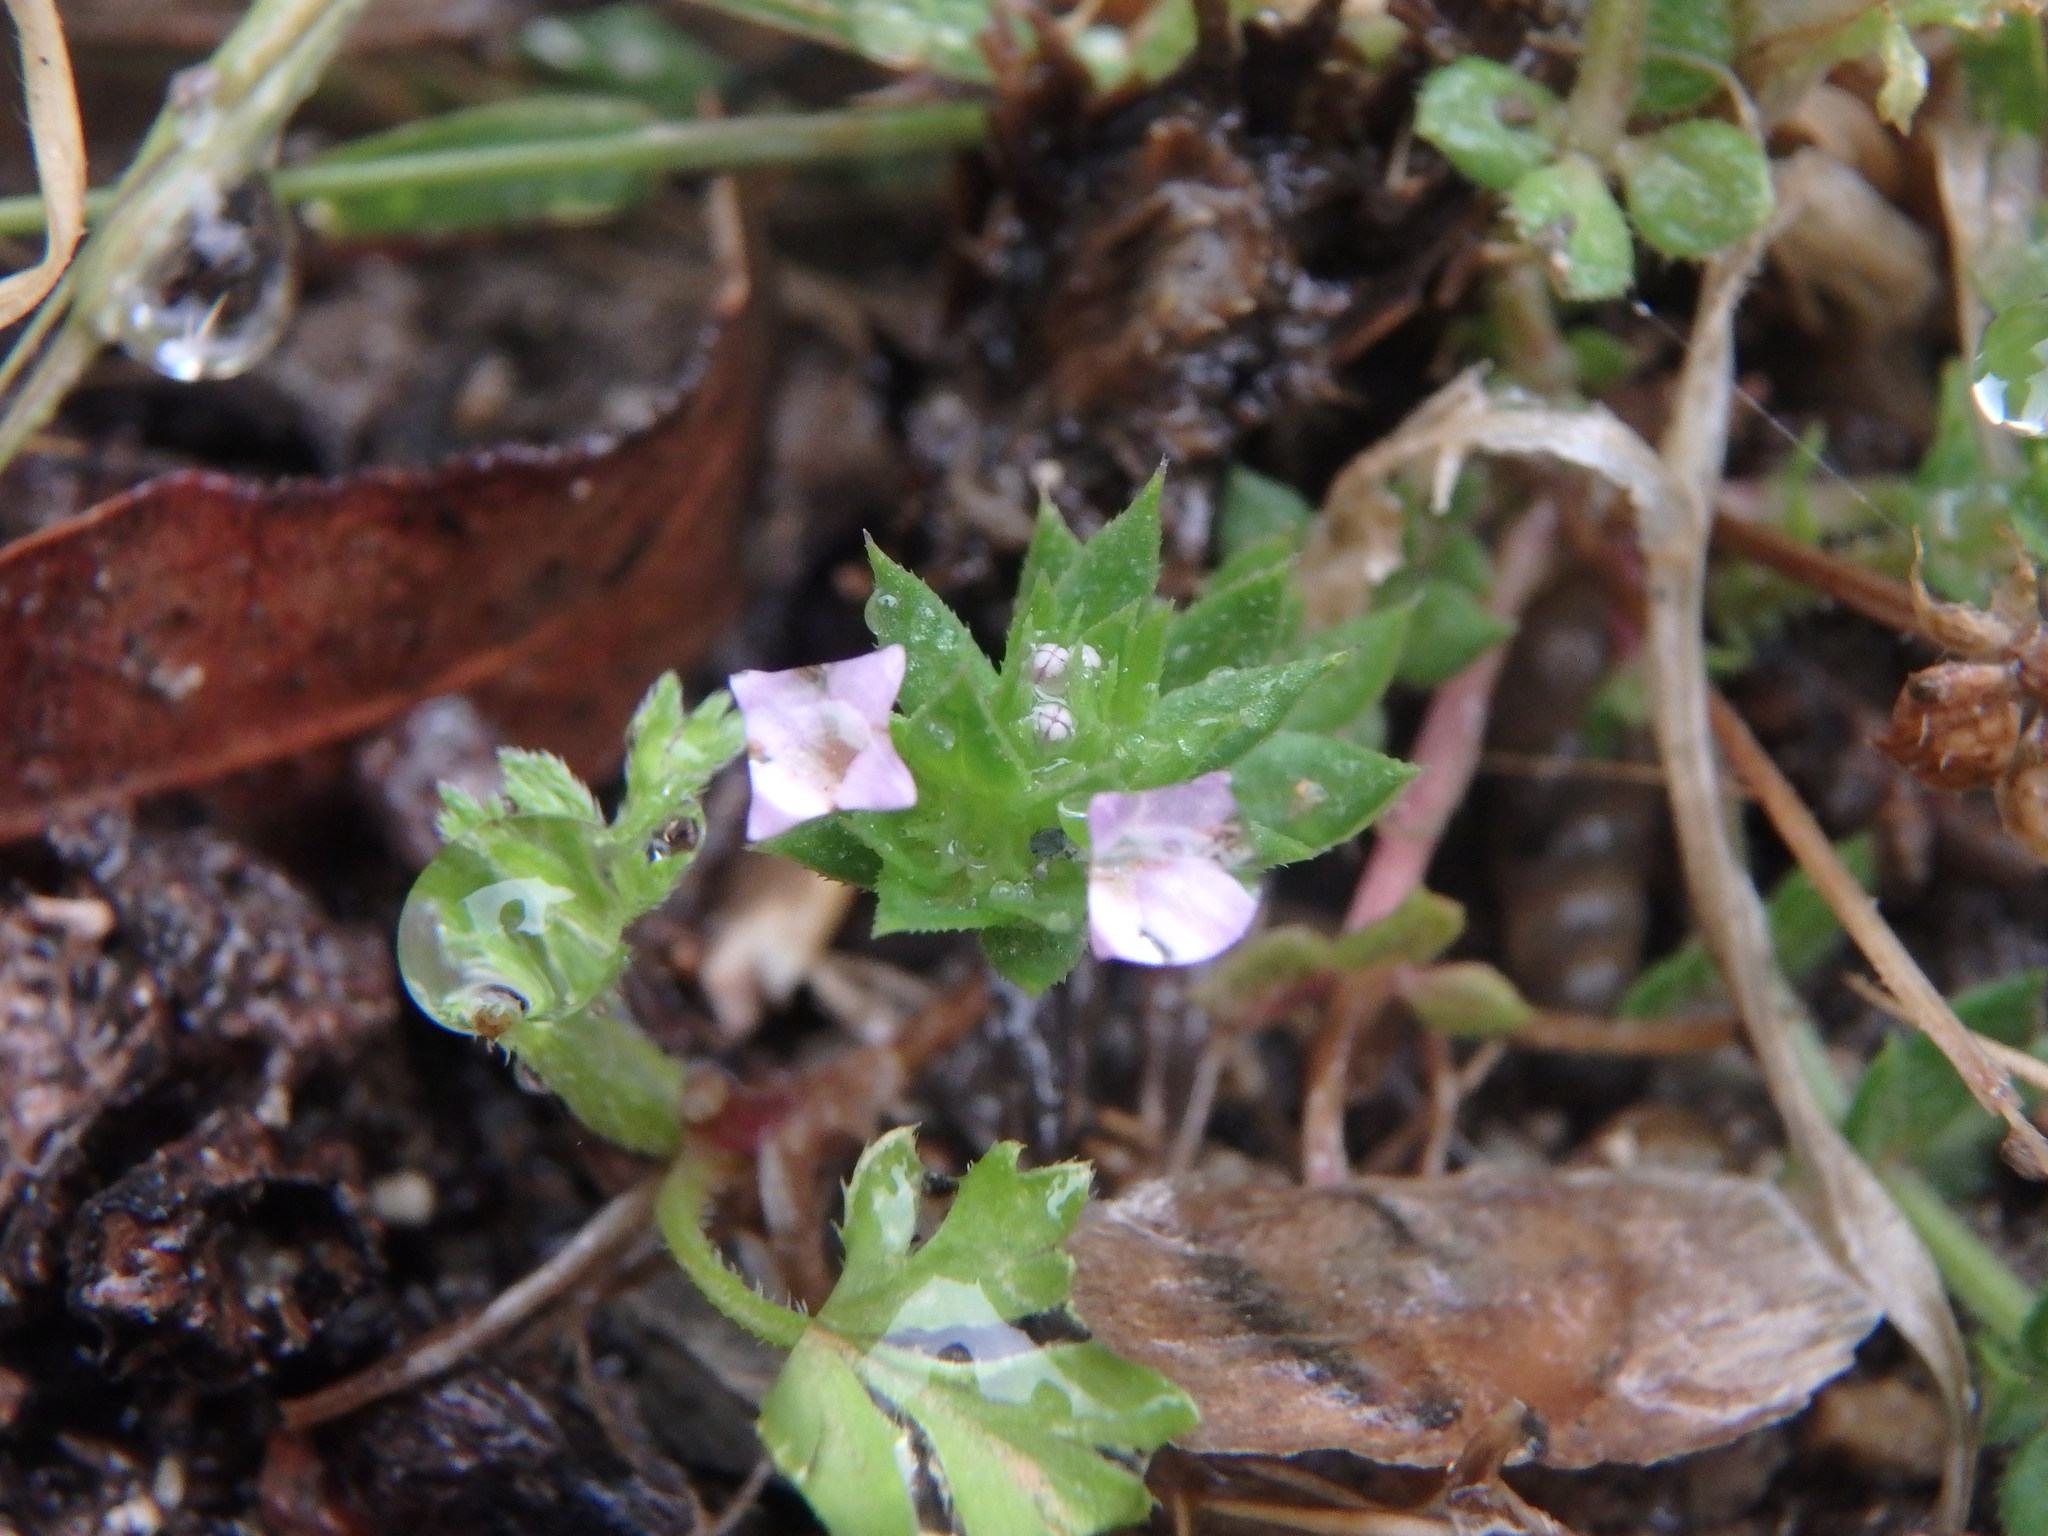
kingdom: Plantae
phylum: Tracheophyta
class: Magnoliopsida
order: Gentianales
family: Rubiaceae
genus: Sherardia
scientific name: Sherardia arvensis
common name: Field madder
